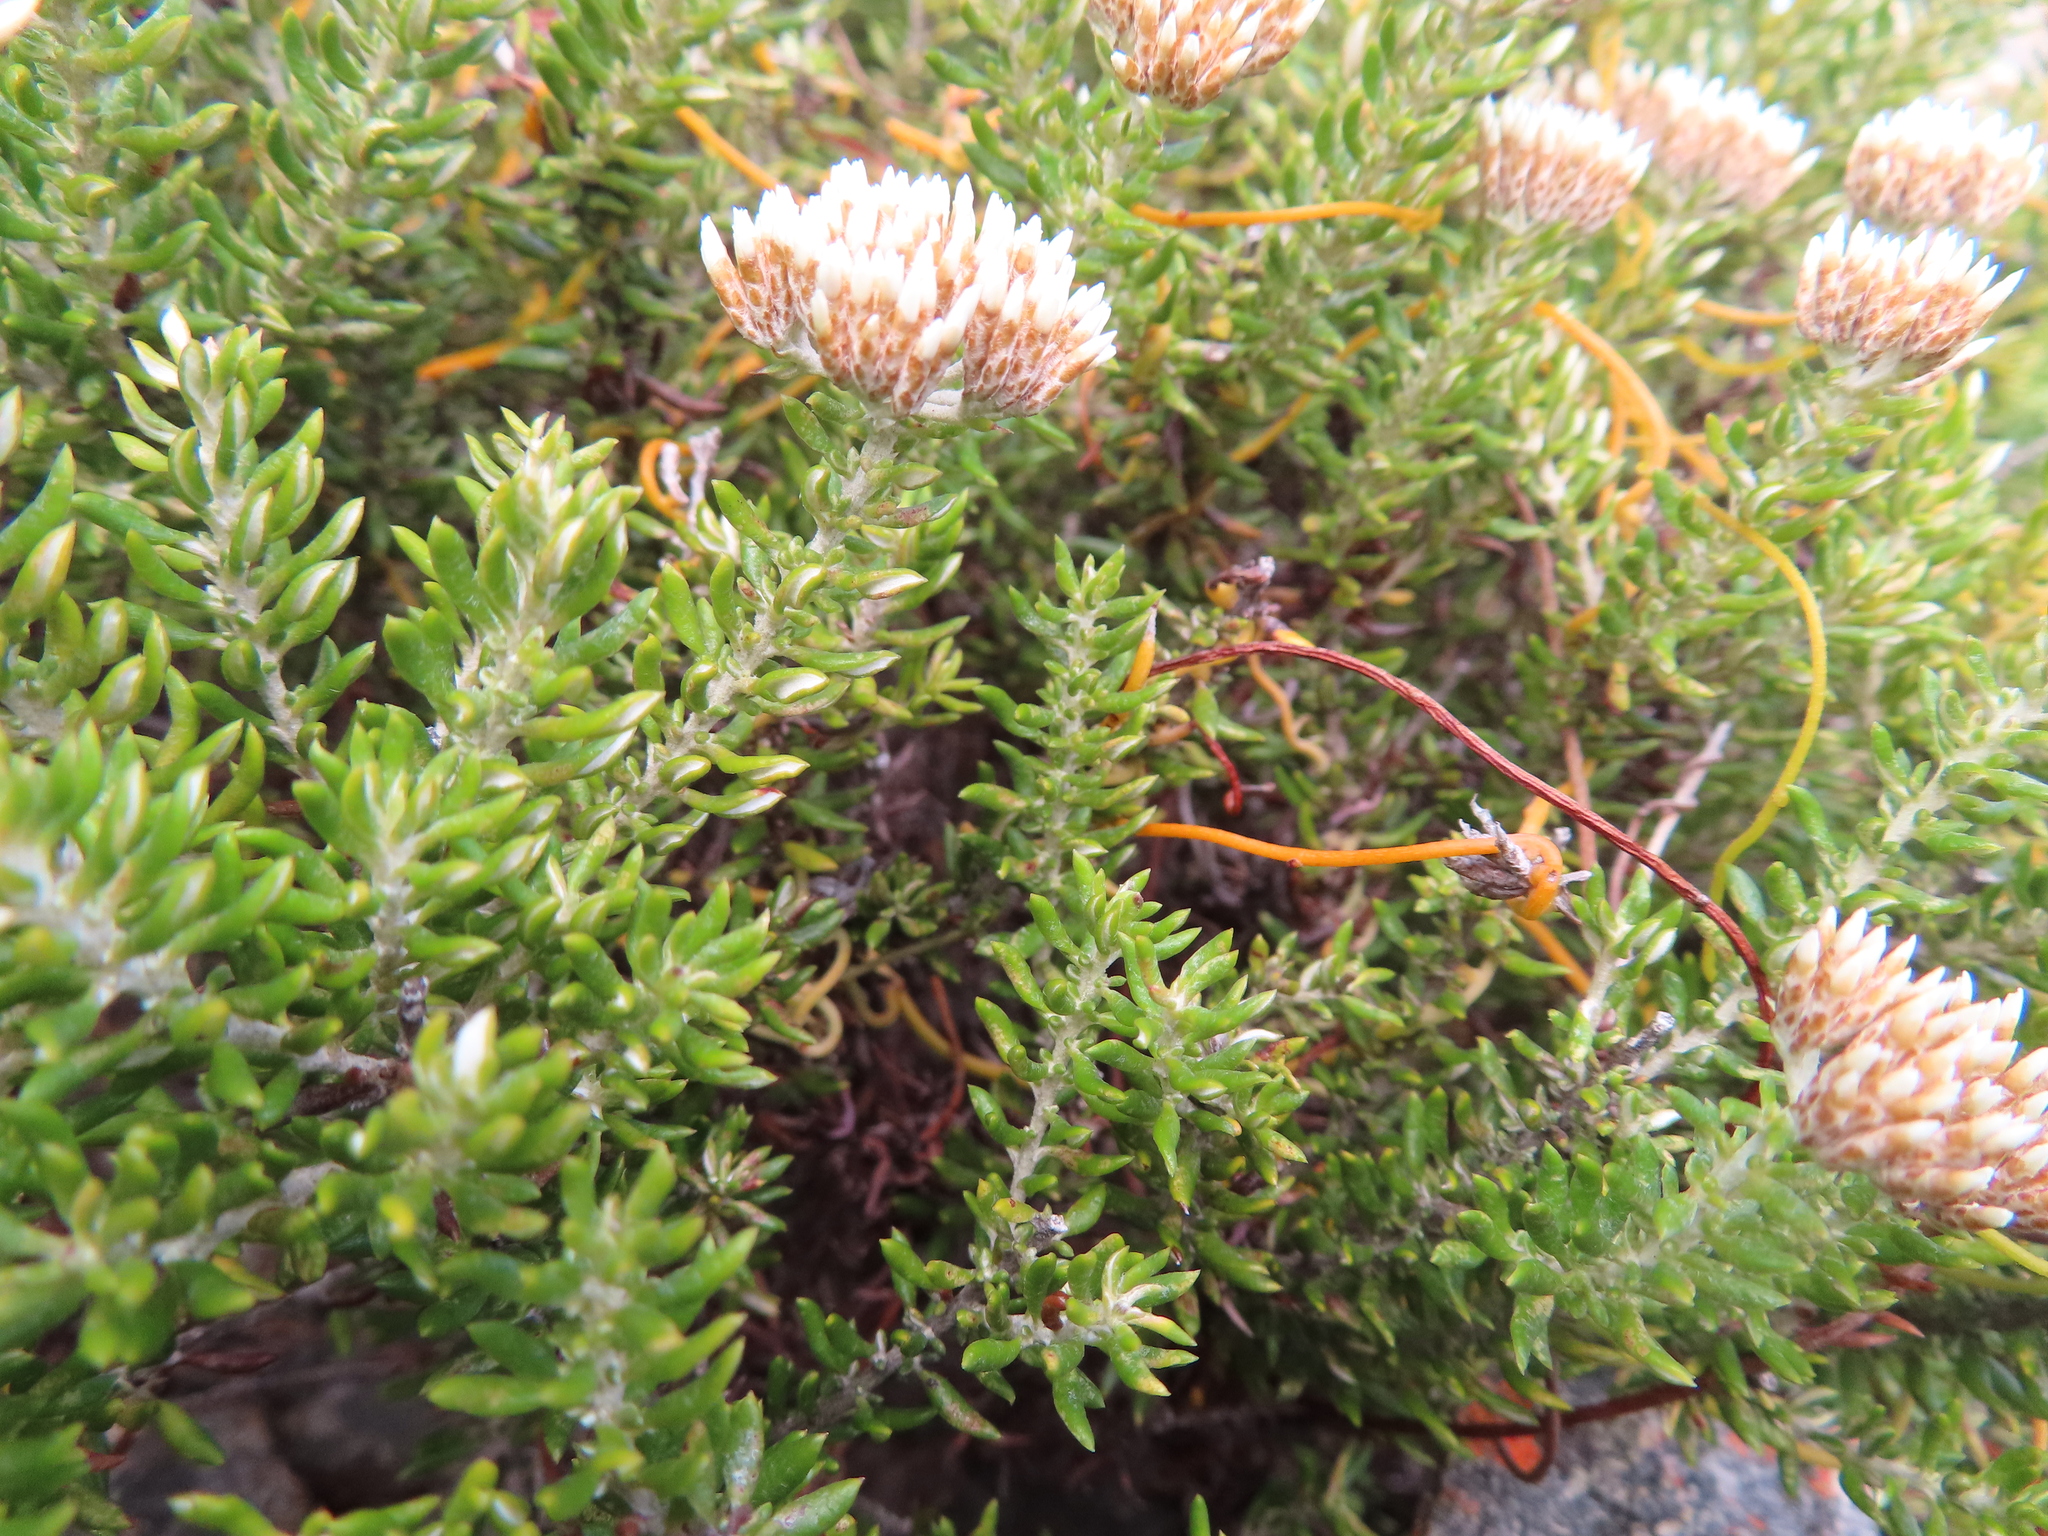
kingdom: Plantae
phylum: Tracheophyta
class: Magnoliopsida
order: Asterales
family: Asteraceae
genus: Metalasia
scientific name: Metalasia muricata
